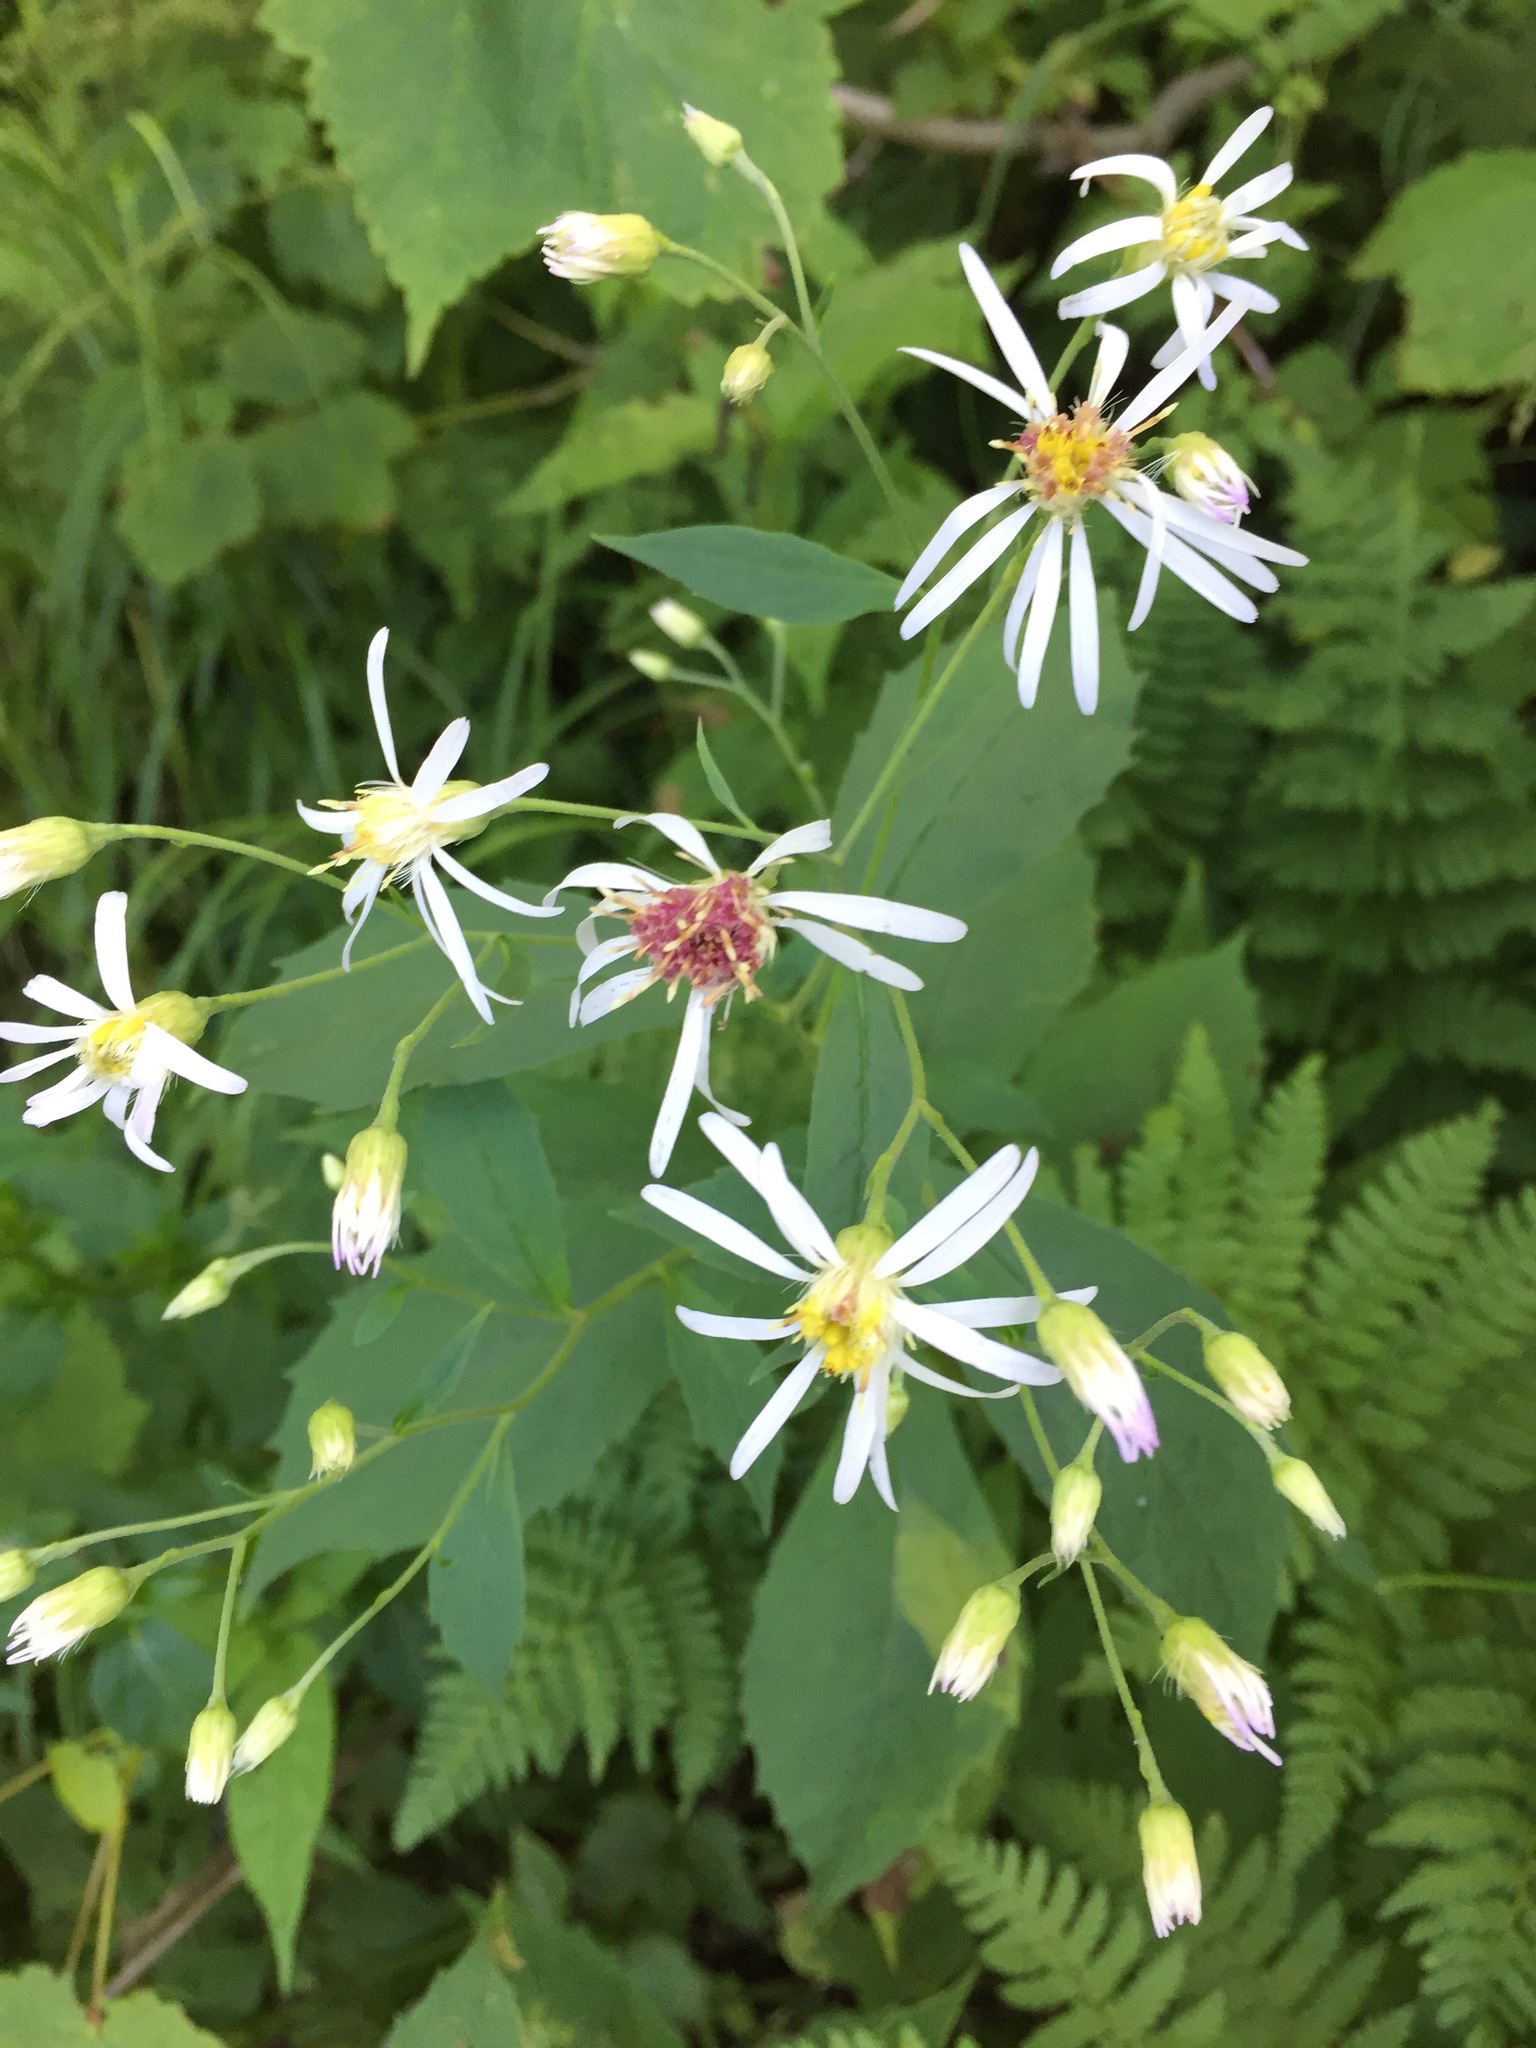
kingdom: Plantae
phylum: Tracheophyta
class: Magnoliopsida
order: Asterales
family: Asteraceae
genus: Oclemena
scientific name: Oclemena acuminata
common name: Mountain aster
